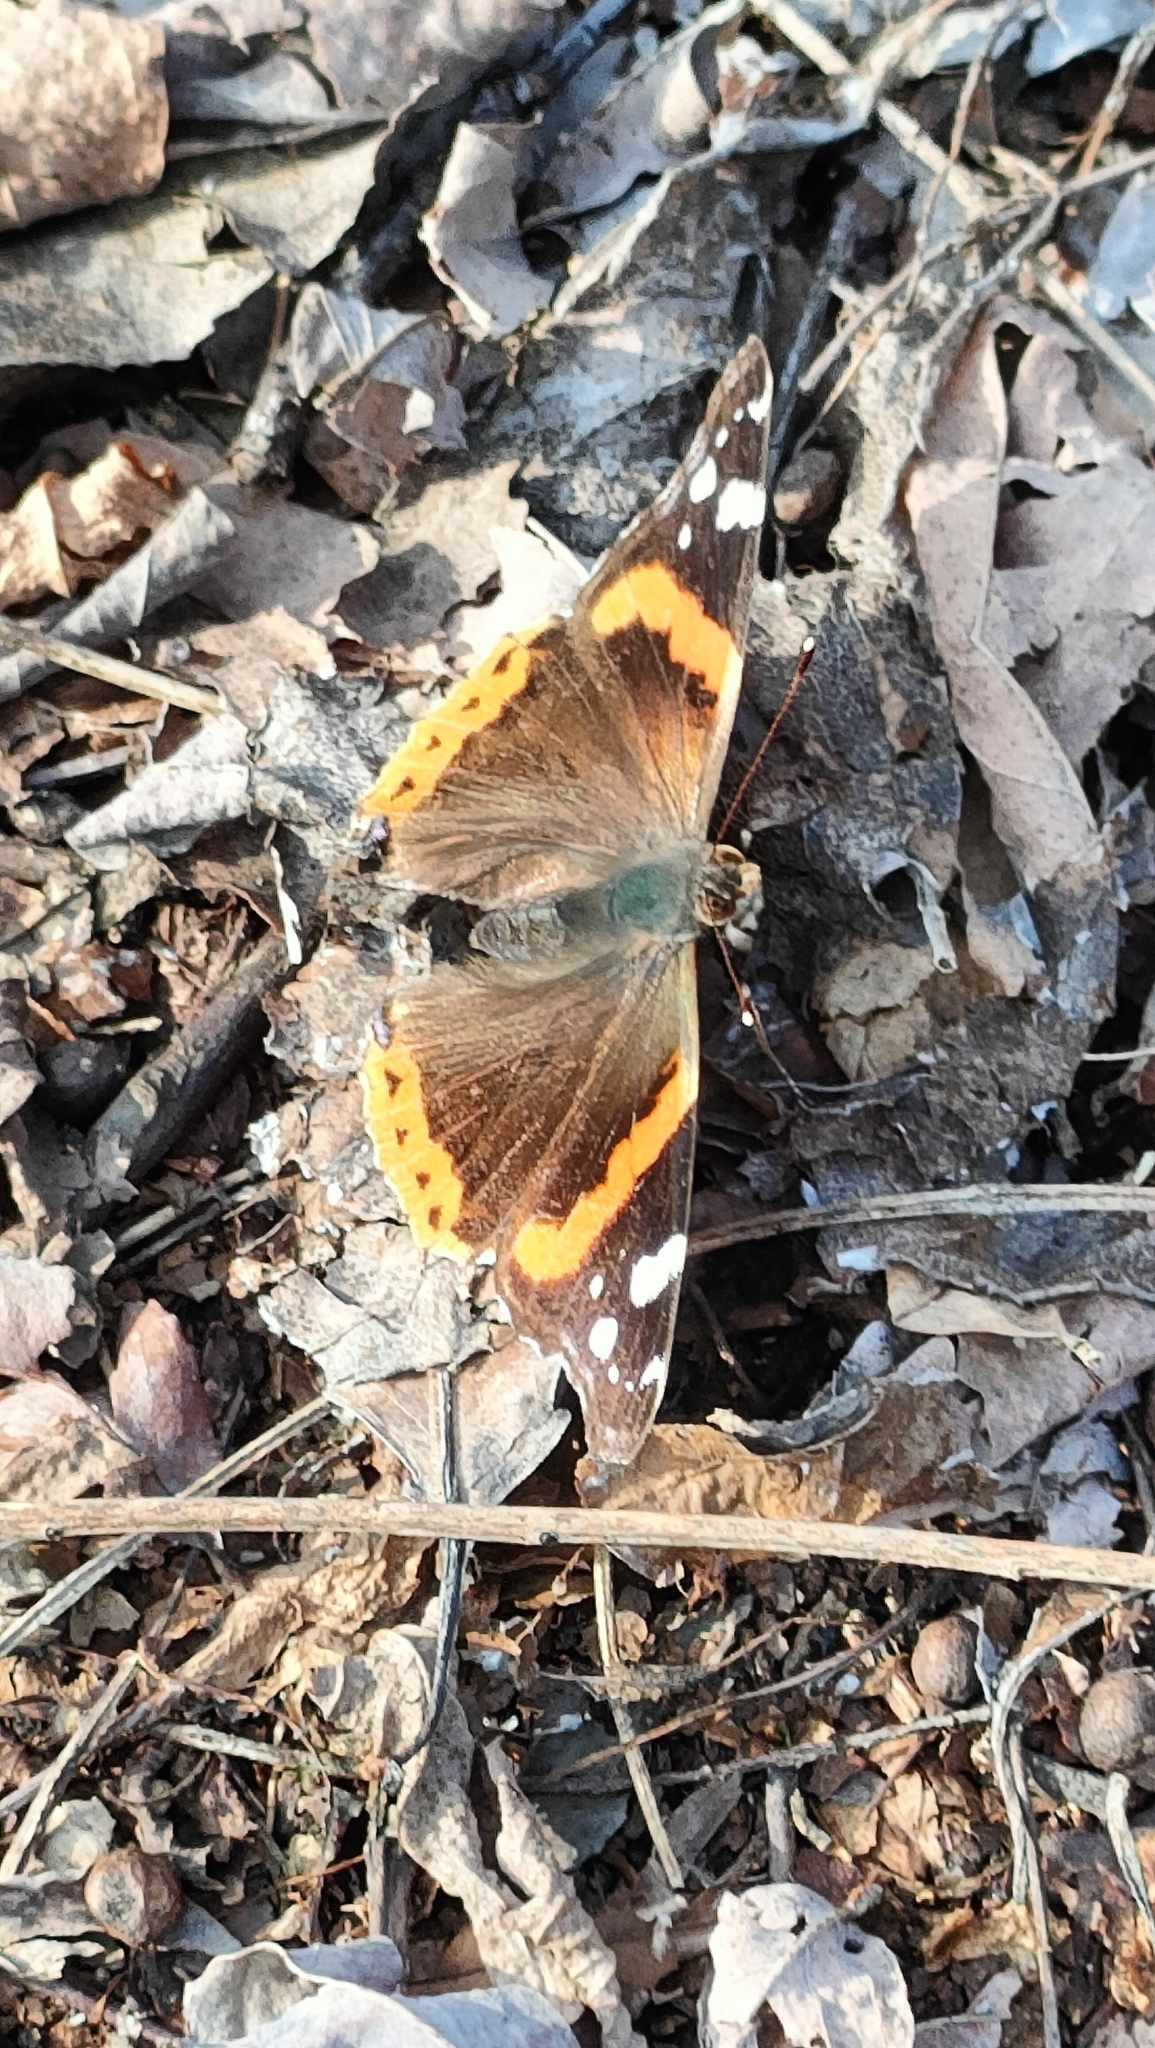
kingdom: Animalia
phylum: Arthropoda
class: Insecta
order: Lepidoptera
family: Nymphalidae
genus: Vanessa
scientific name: Vanessa atalanta
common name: Red admiral
